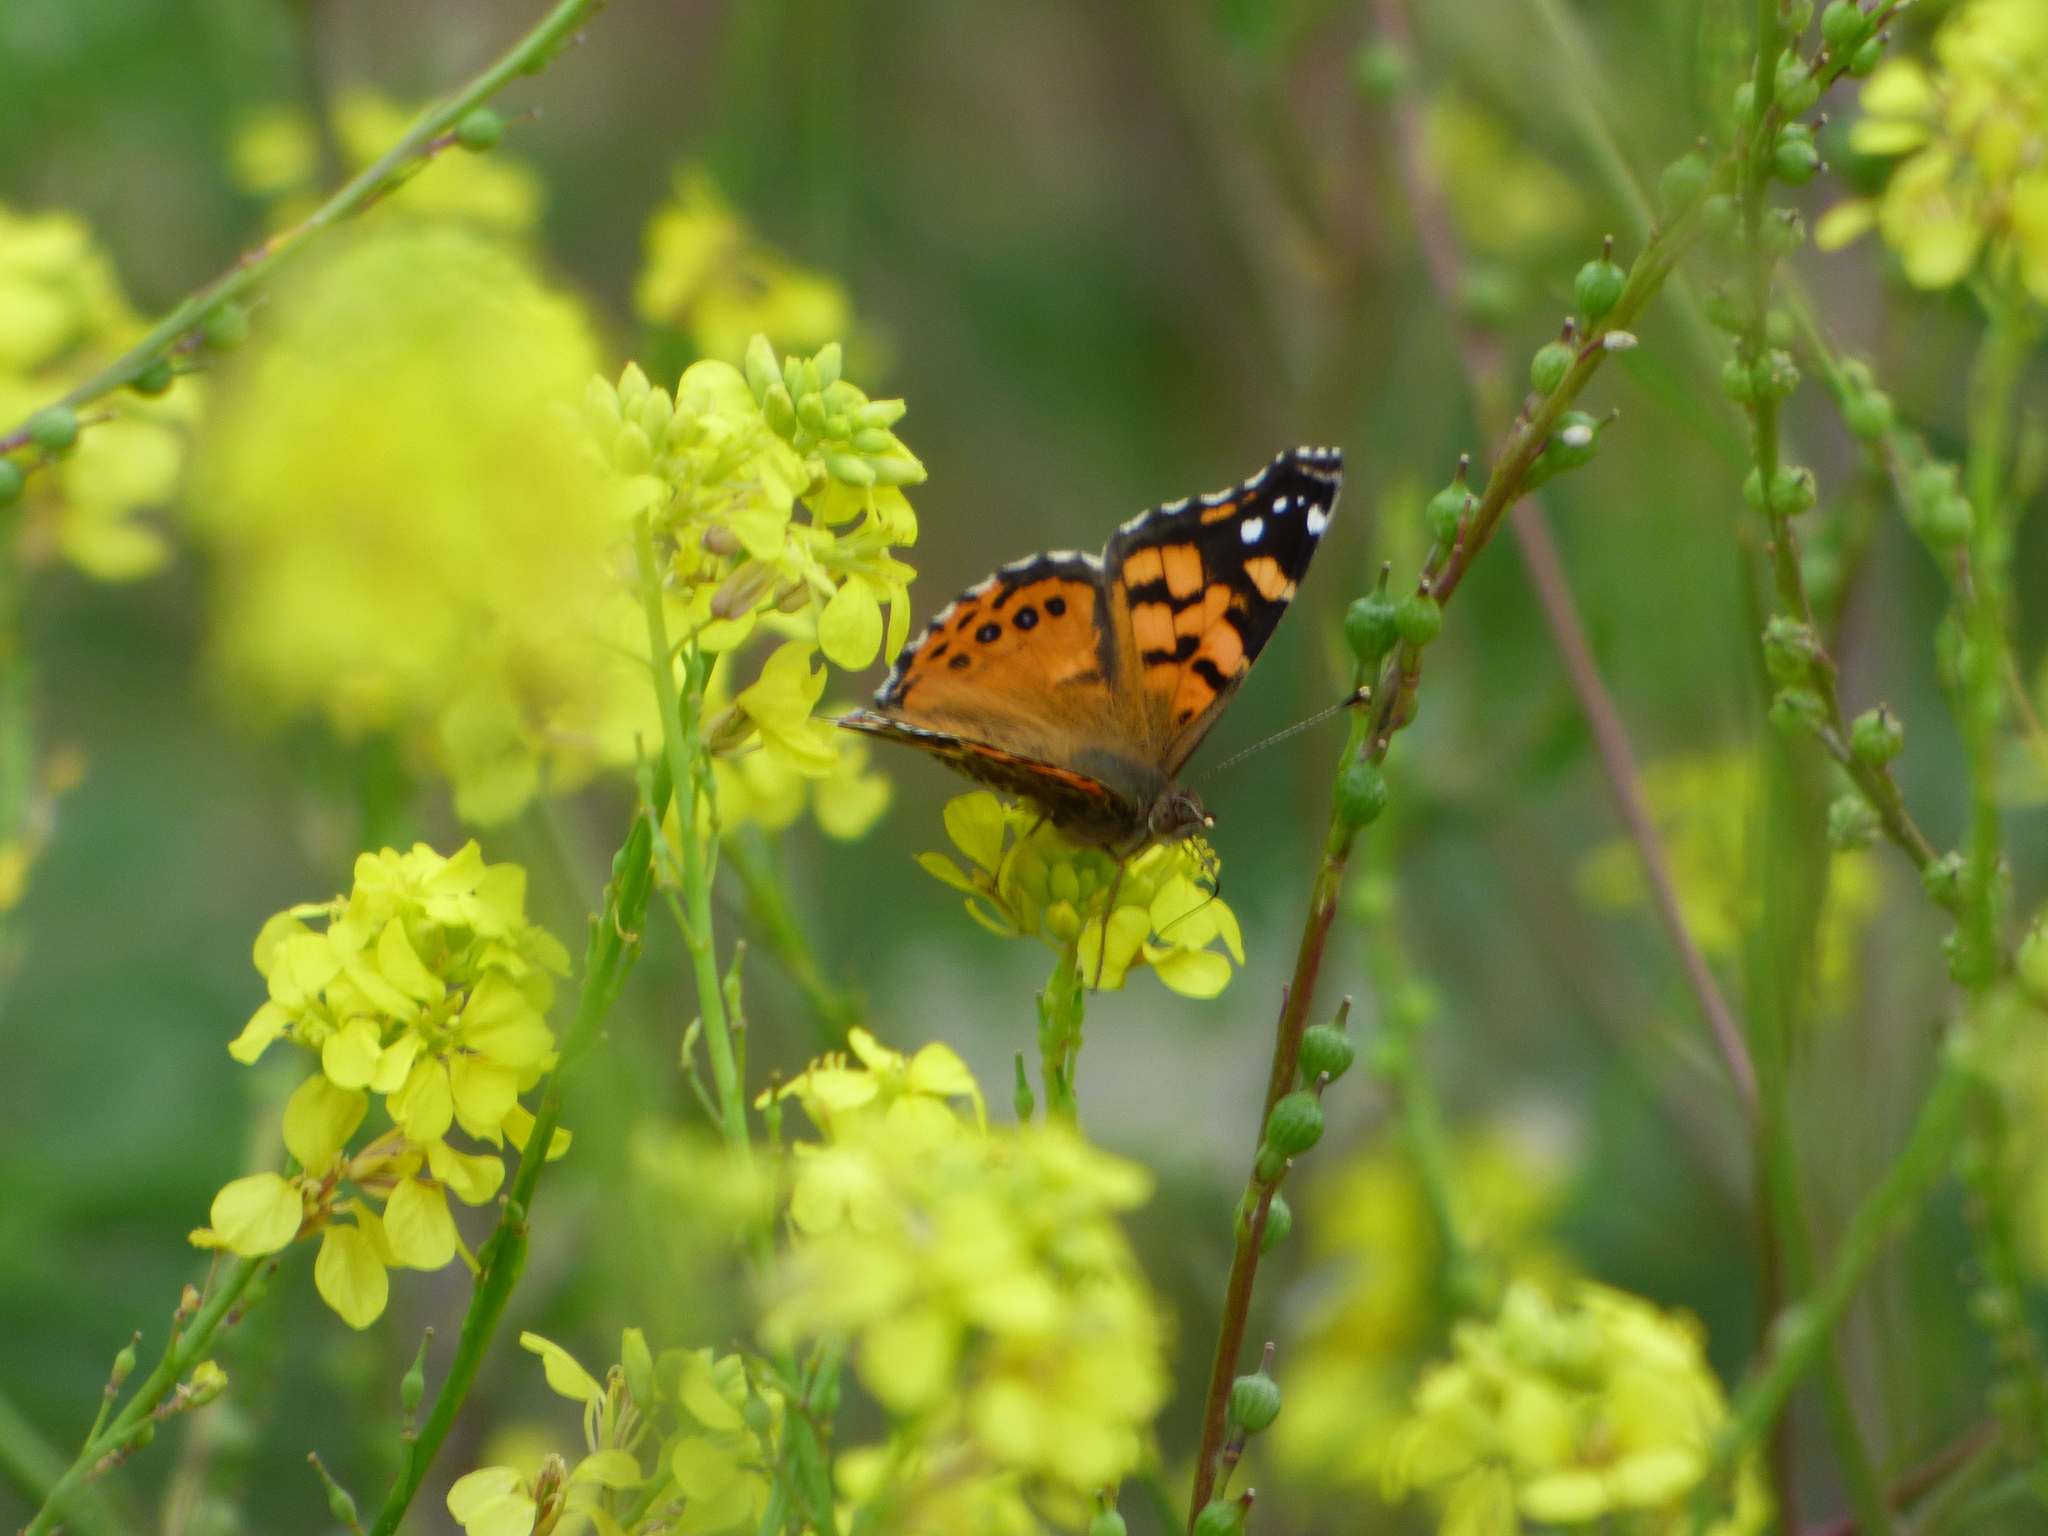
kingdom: Animalia
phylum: Arthropoda
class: Insecta
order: Lepidoptera
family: Nymphalidae
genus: Vanessa
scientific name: Vanessa carye
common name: Subtropical lady
